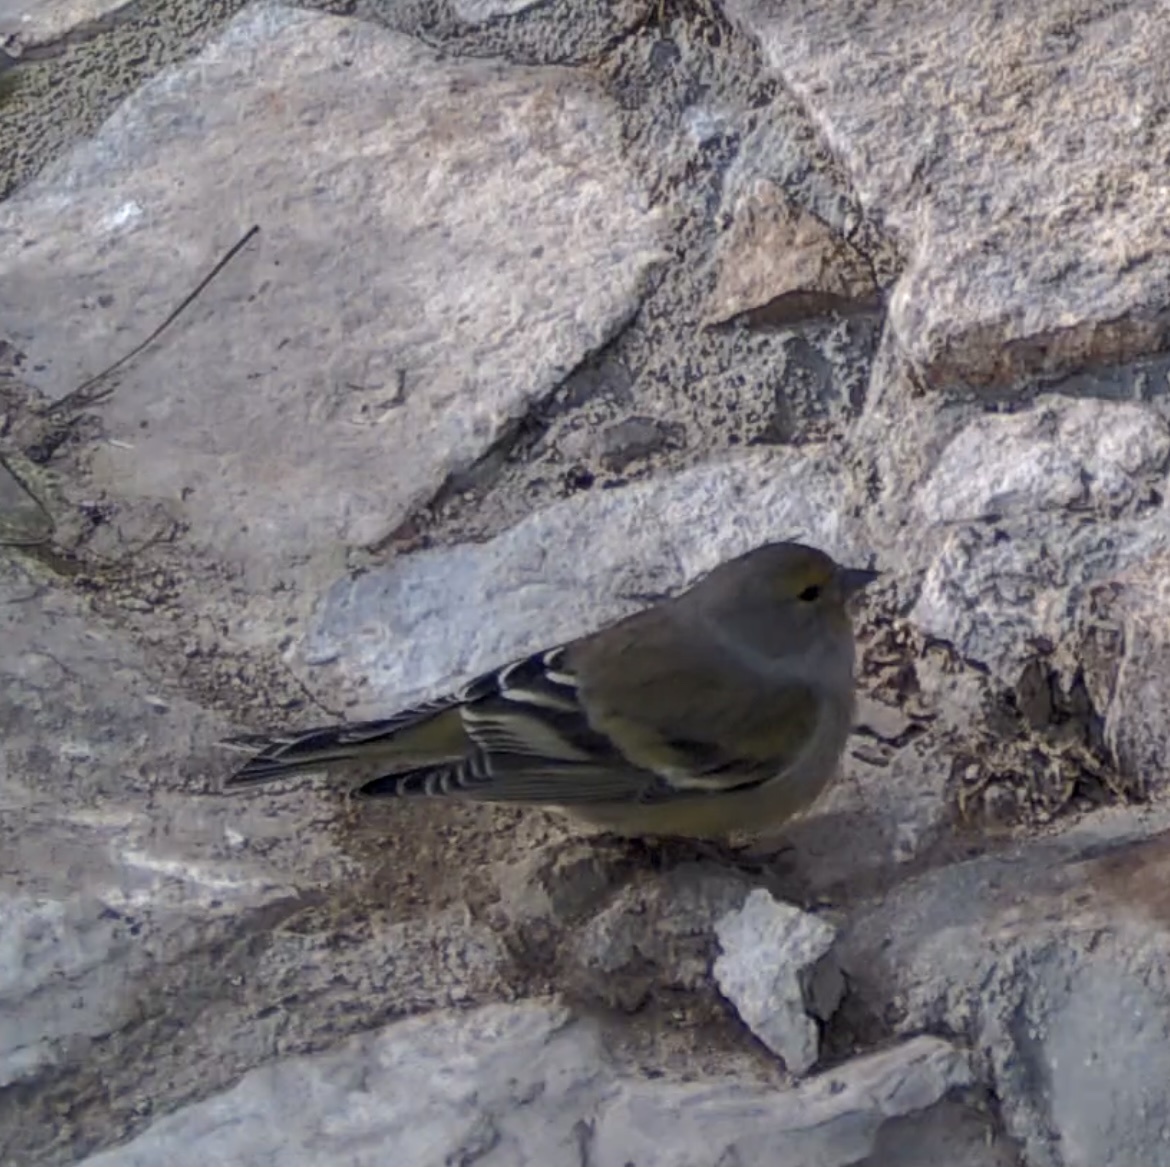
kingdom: Animalia
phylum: Chordata
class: Aves
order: Passeriformes
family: Fringillidae
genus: Carduelis
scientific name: Carduelis citrinella
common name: Citril finch
